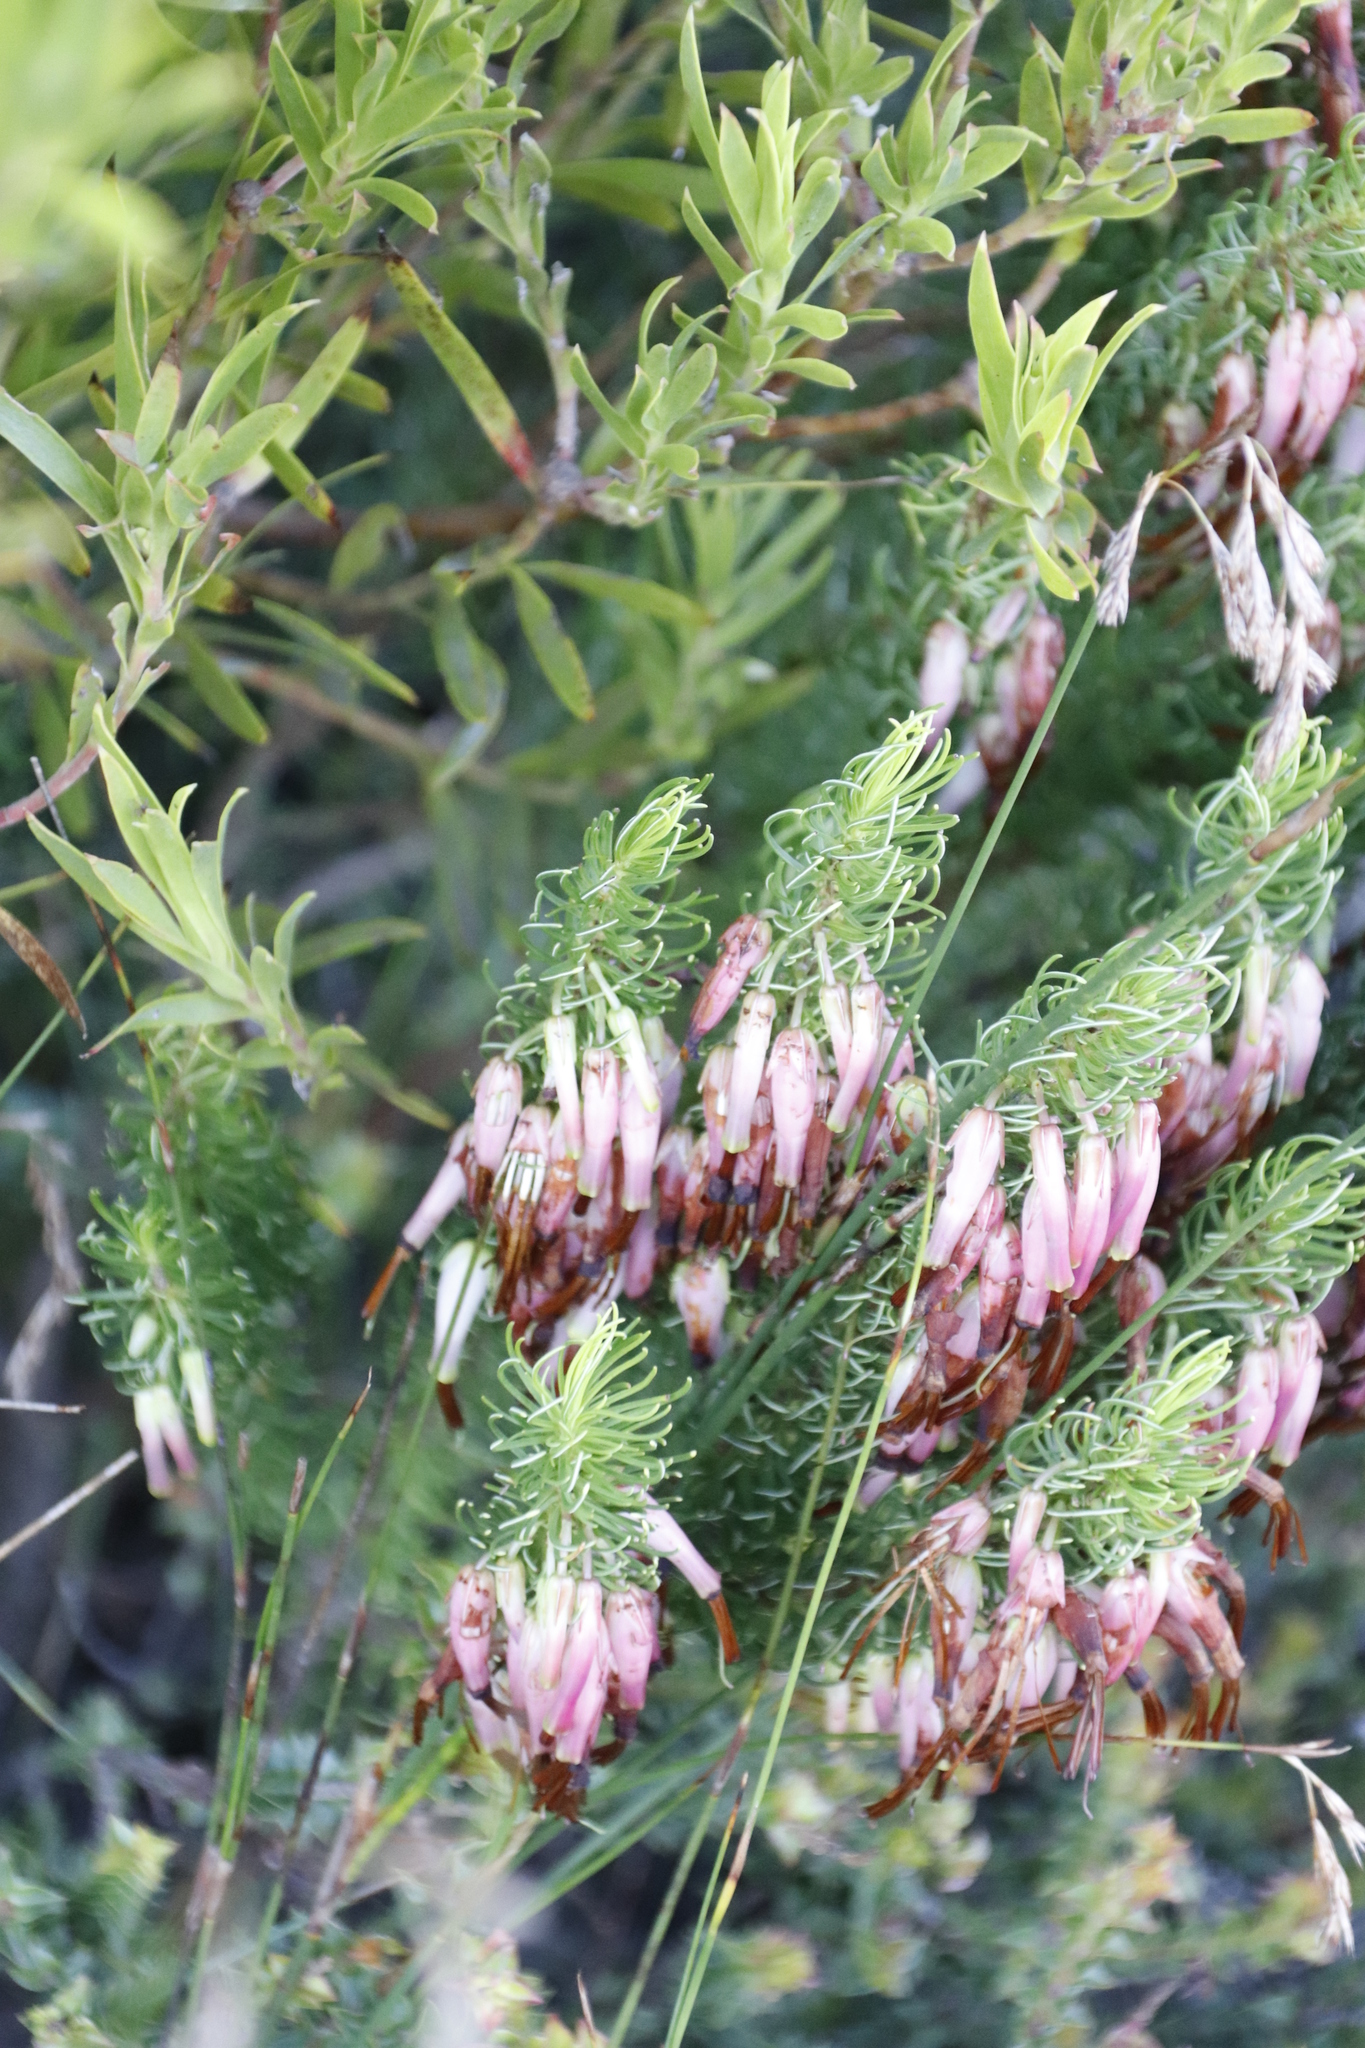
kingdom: Plantae
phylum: Tracheophyta
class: Magnoliopsida
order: Ericales
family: Ericaceae
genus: Erica
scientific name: Erica plukenetii
